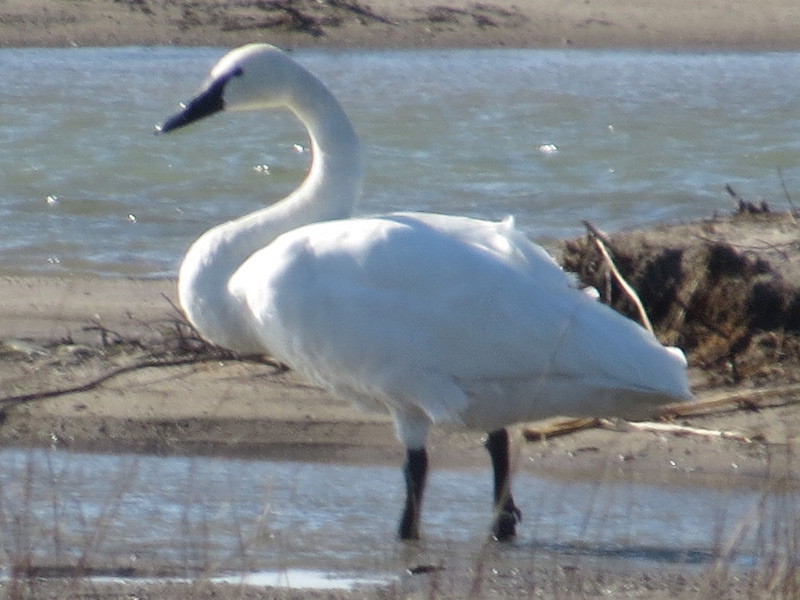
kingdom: Animalia
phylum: Chordata
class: Aves
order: Anseriformes
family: Anatidae
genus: Cygnus
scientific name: Cygnus columbianus
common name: Tundra swan
